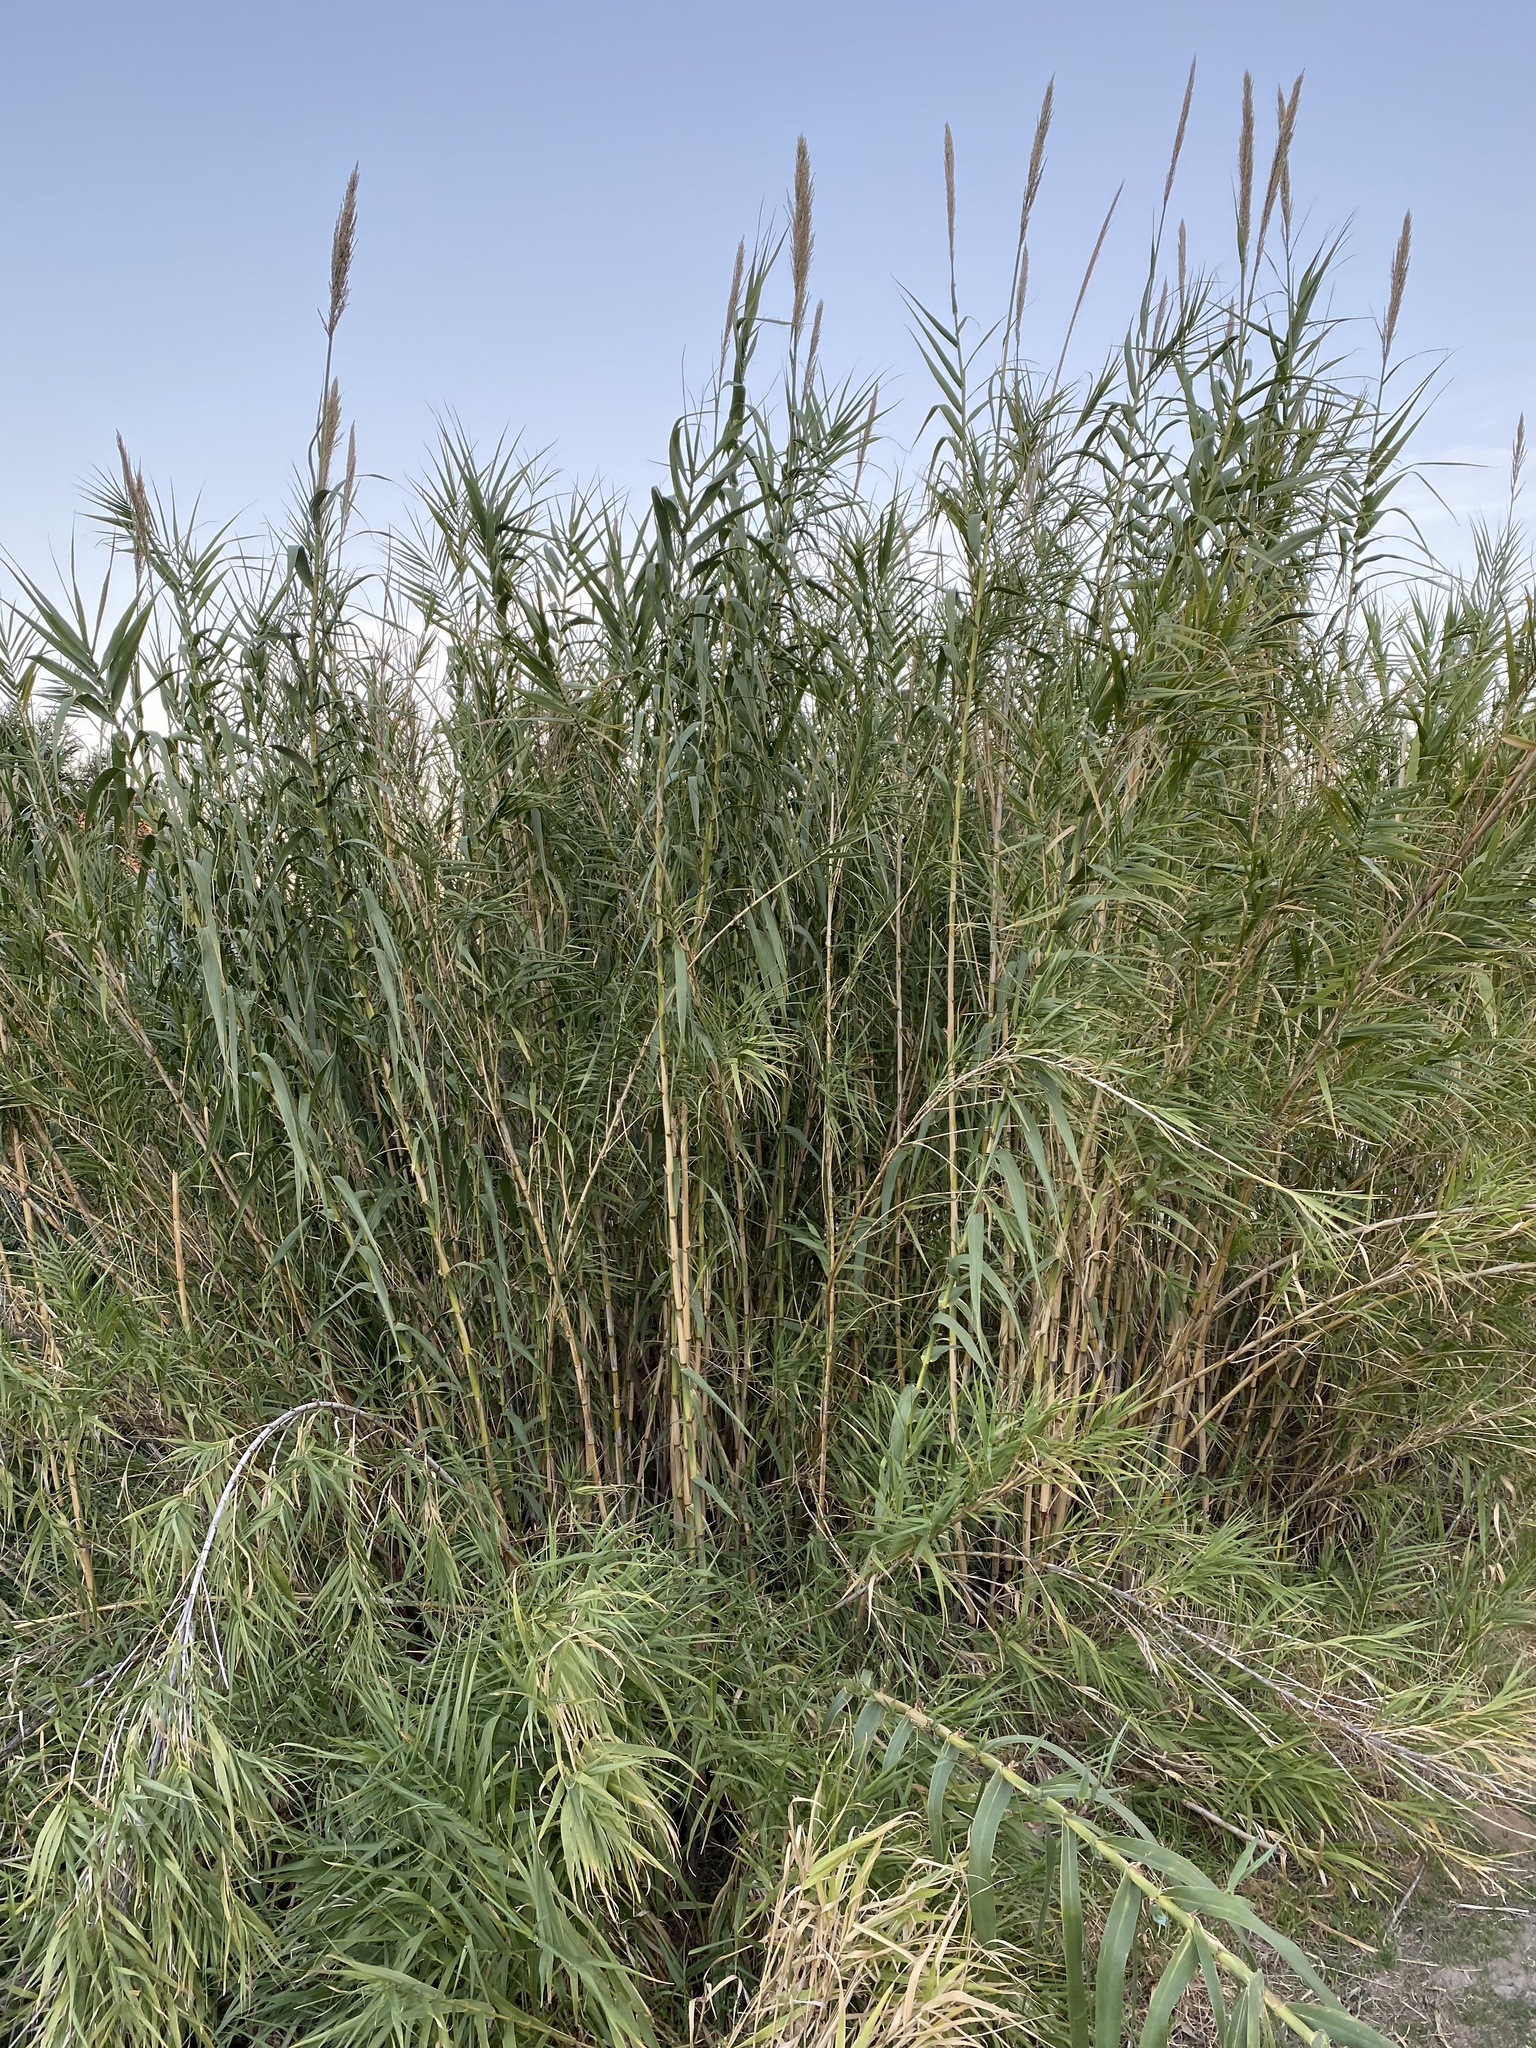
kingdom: Plantae
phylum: Tracheophyta
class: Liliopsida
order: Poales
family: Poaceae
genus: Arundo
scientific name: Arundo donax
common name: Giant reed
